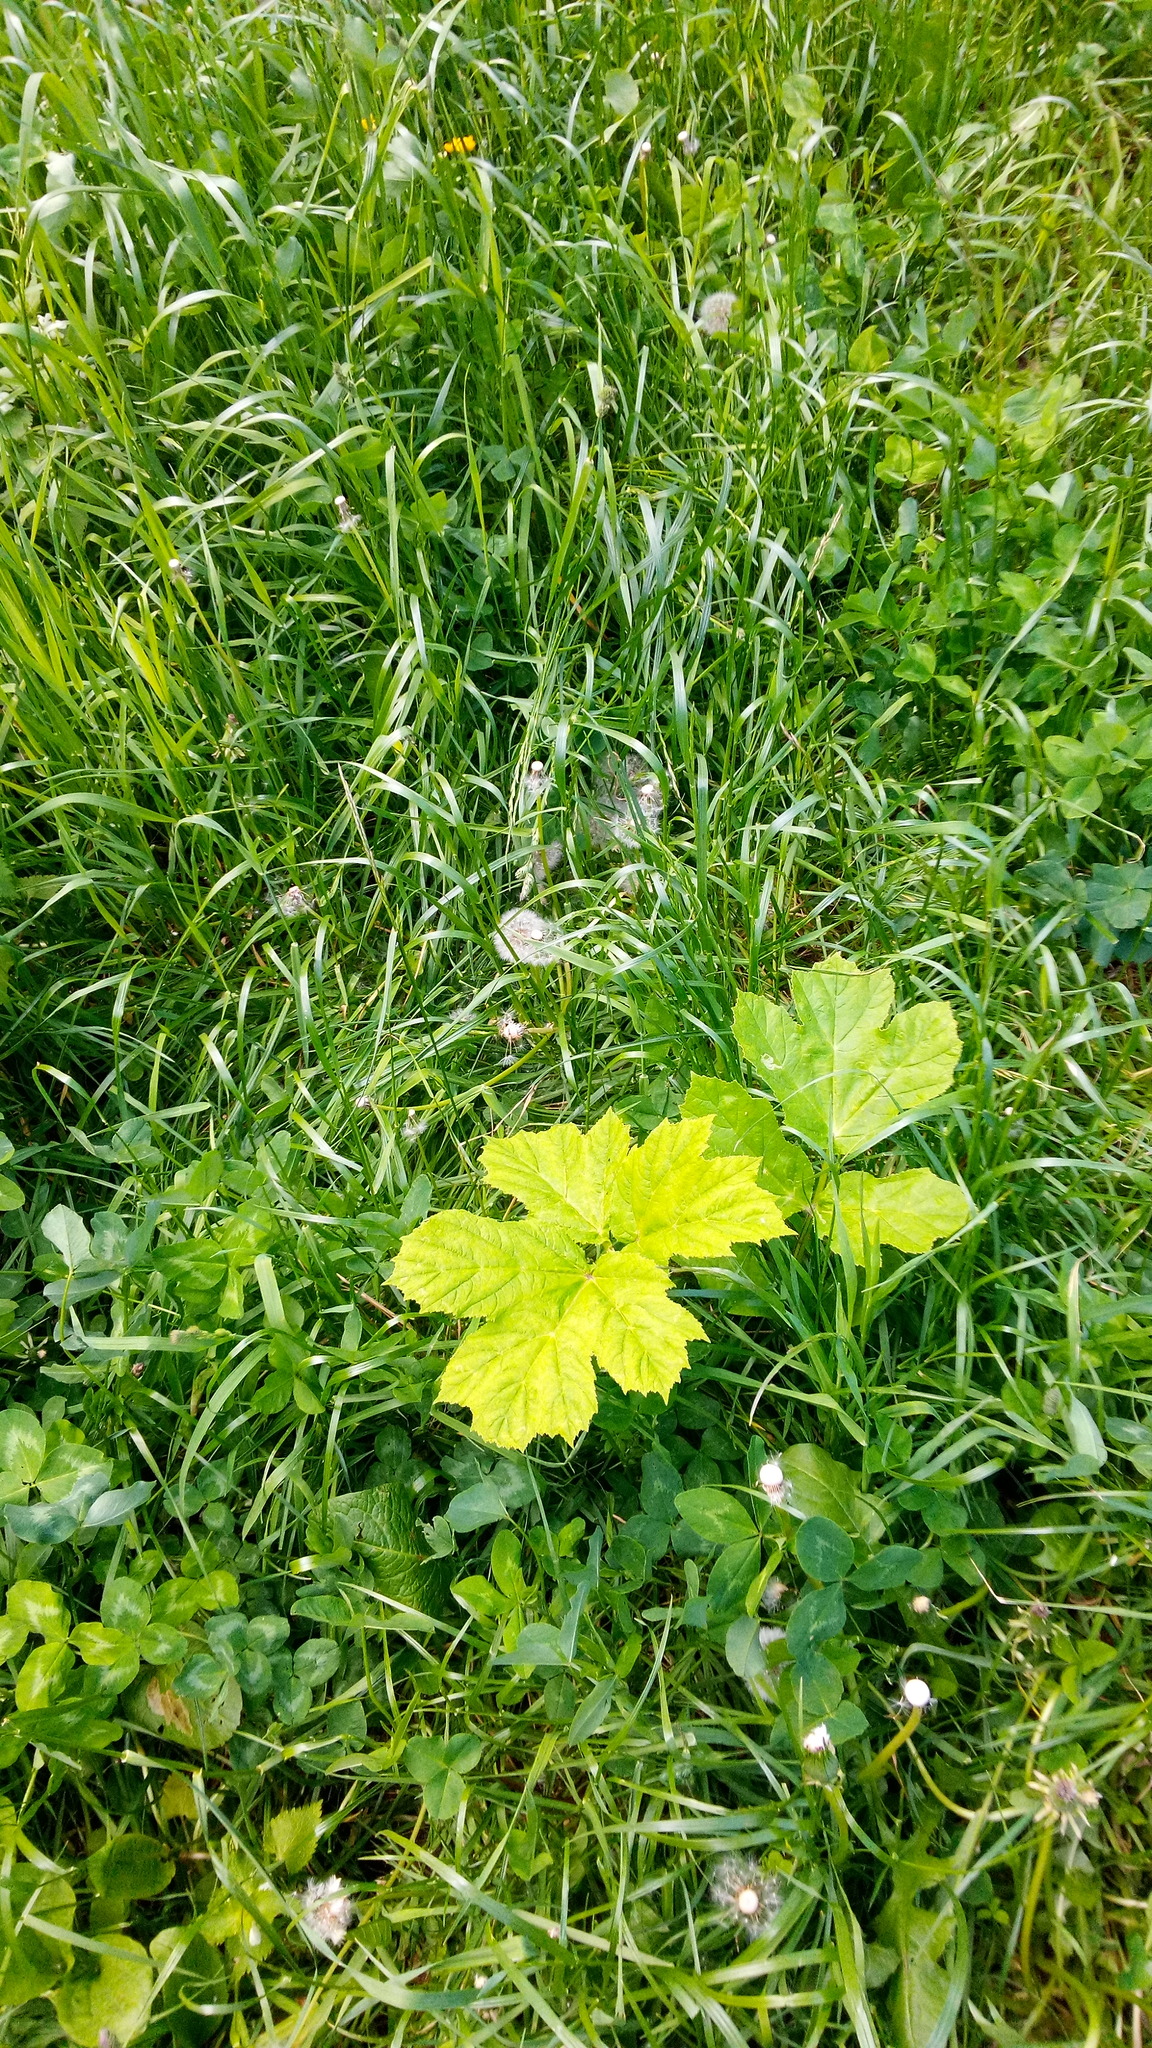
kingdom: Plantae
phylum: Tracheophyta
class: Magnoliopsida
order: Apiales
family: Apiaceae
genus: Heracleum
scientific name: Heracleum sosnowskyi
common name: Sosnowsky's hogweed
